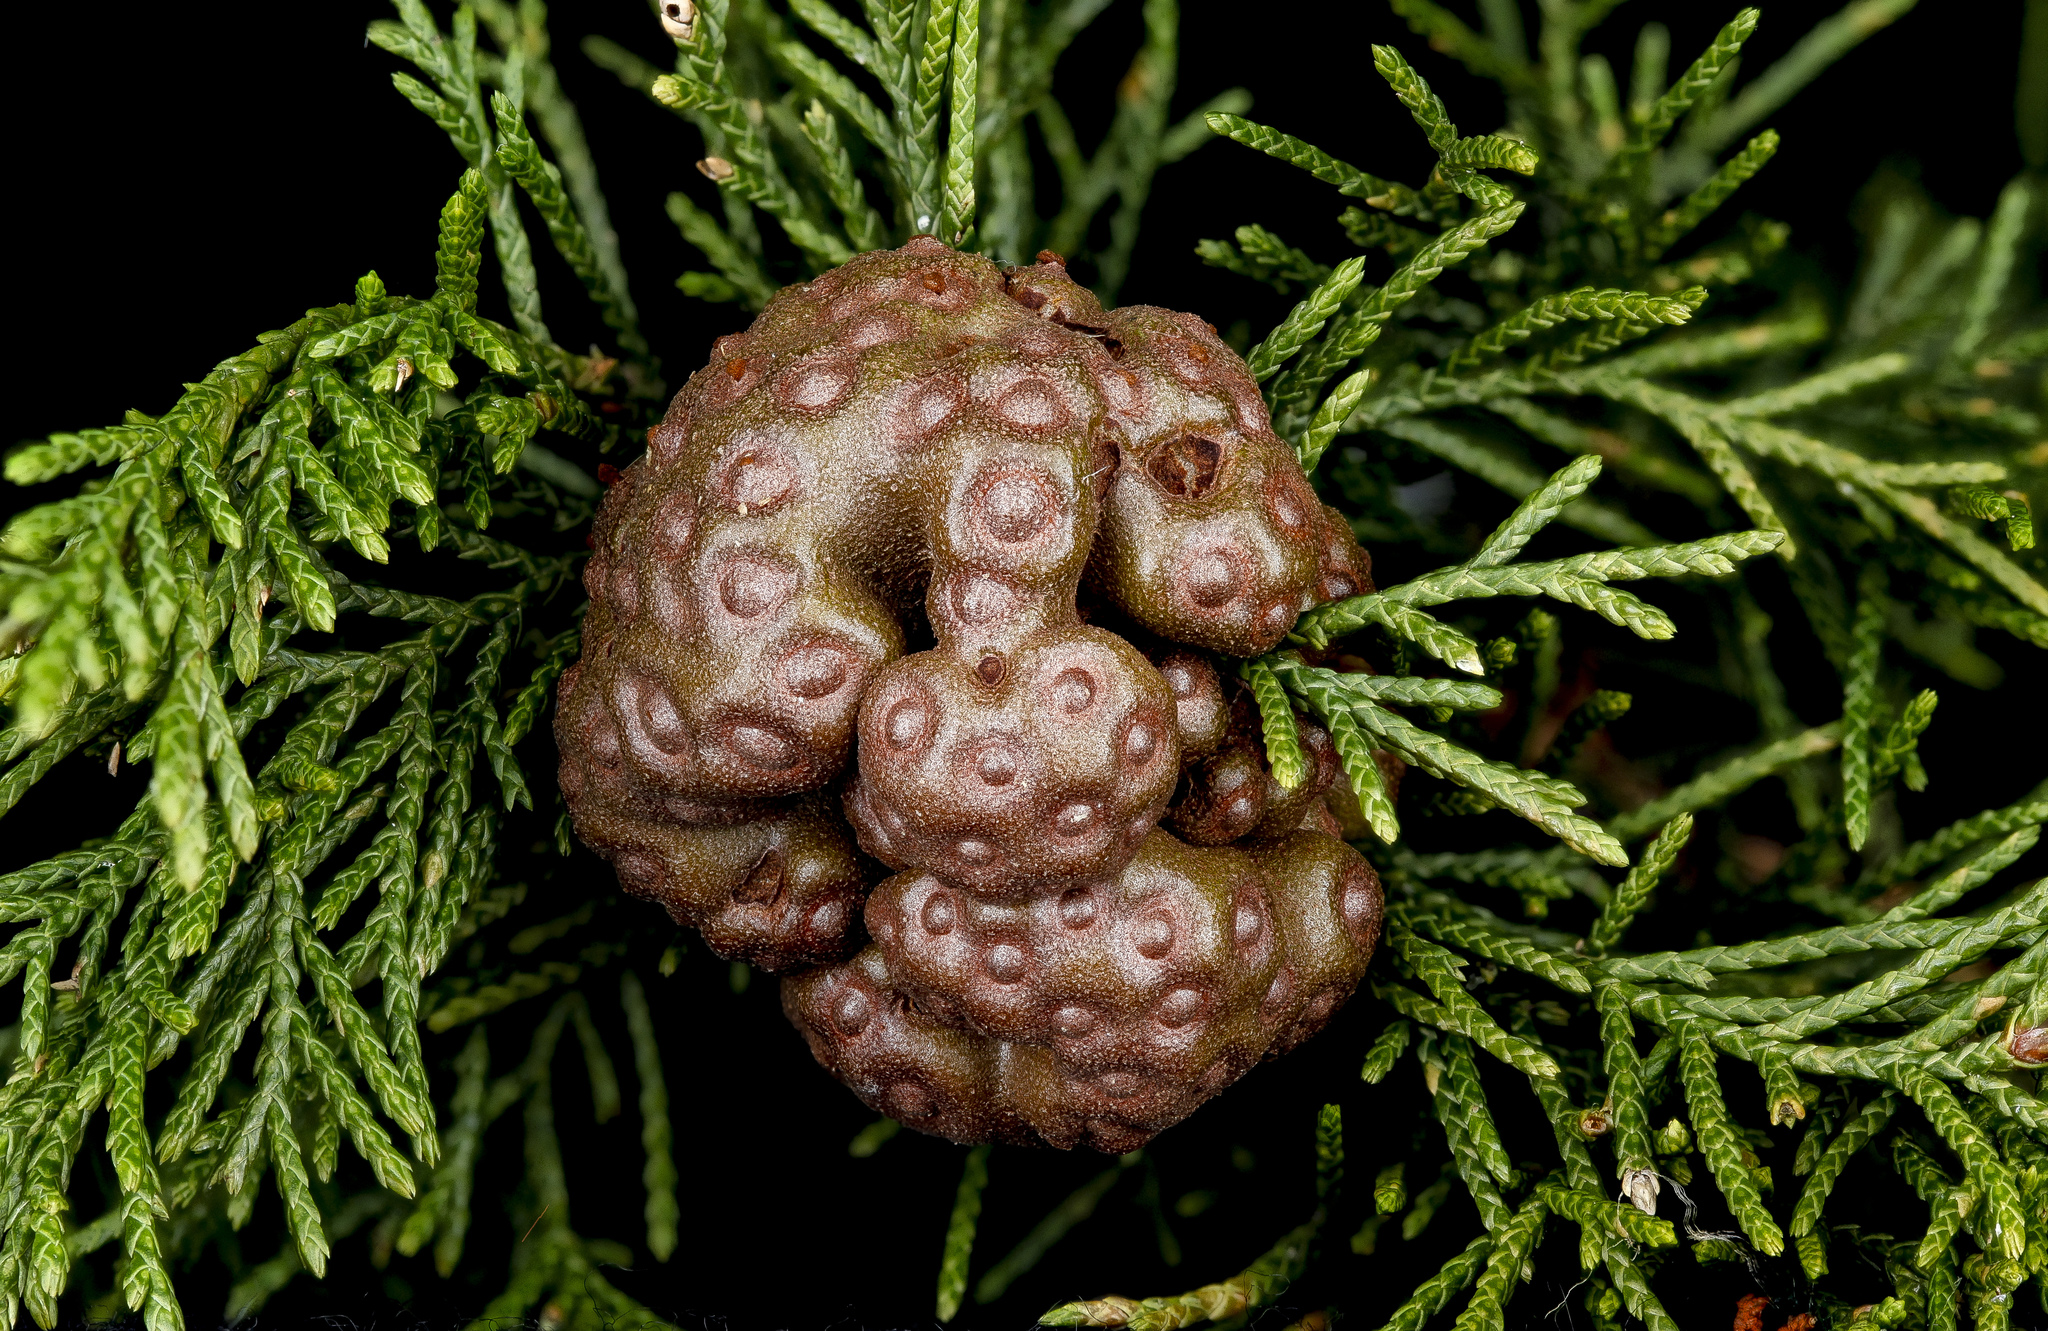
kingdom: Fungi
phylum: Basidiomycota
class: Pucciniomycetes
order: Pucciniales
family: Gymnosporangiaceae
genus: Gymnosporangium
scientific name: Gymnosporangium juniperi-virginianae
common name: Juniper-apple rust
